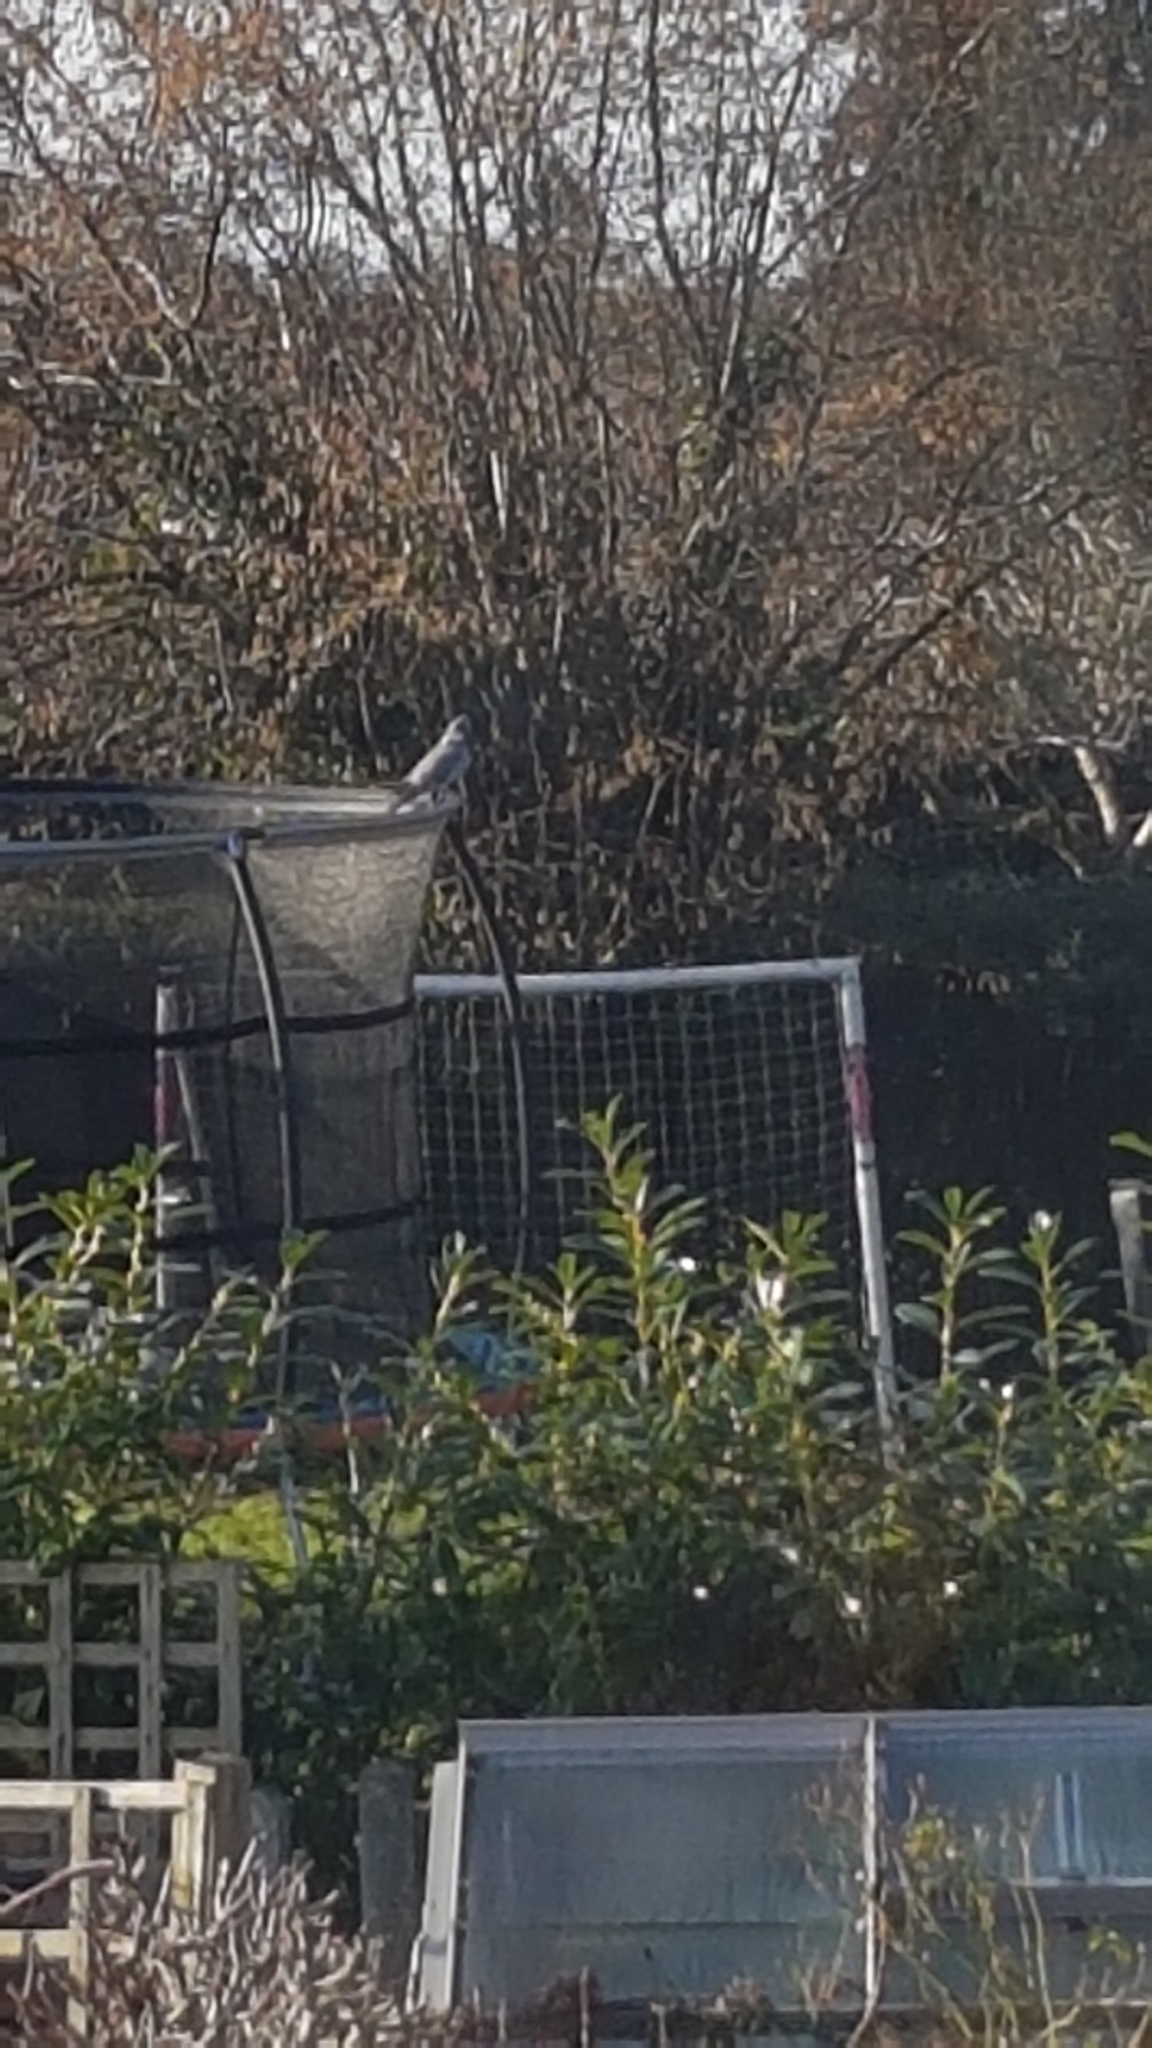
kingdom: Animalia
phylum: Chordata
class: Aves
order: Columbiformes
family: Columbidae
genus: Columba
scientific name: Columba palumbus
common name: Common wood pigeon
